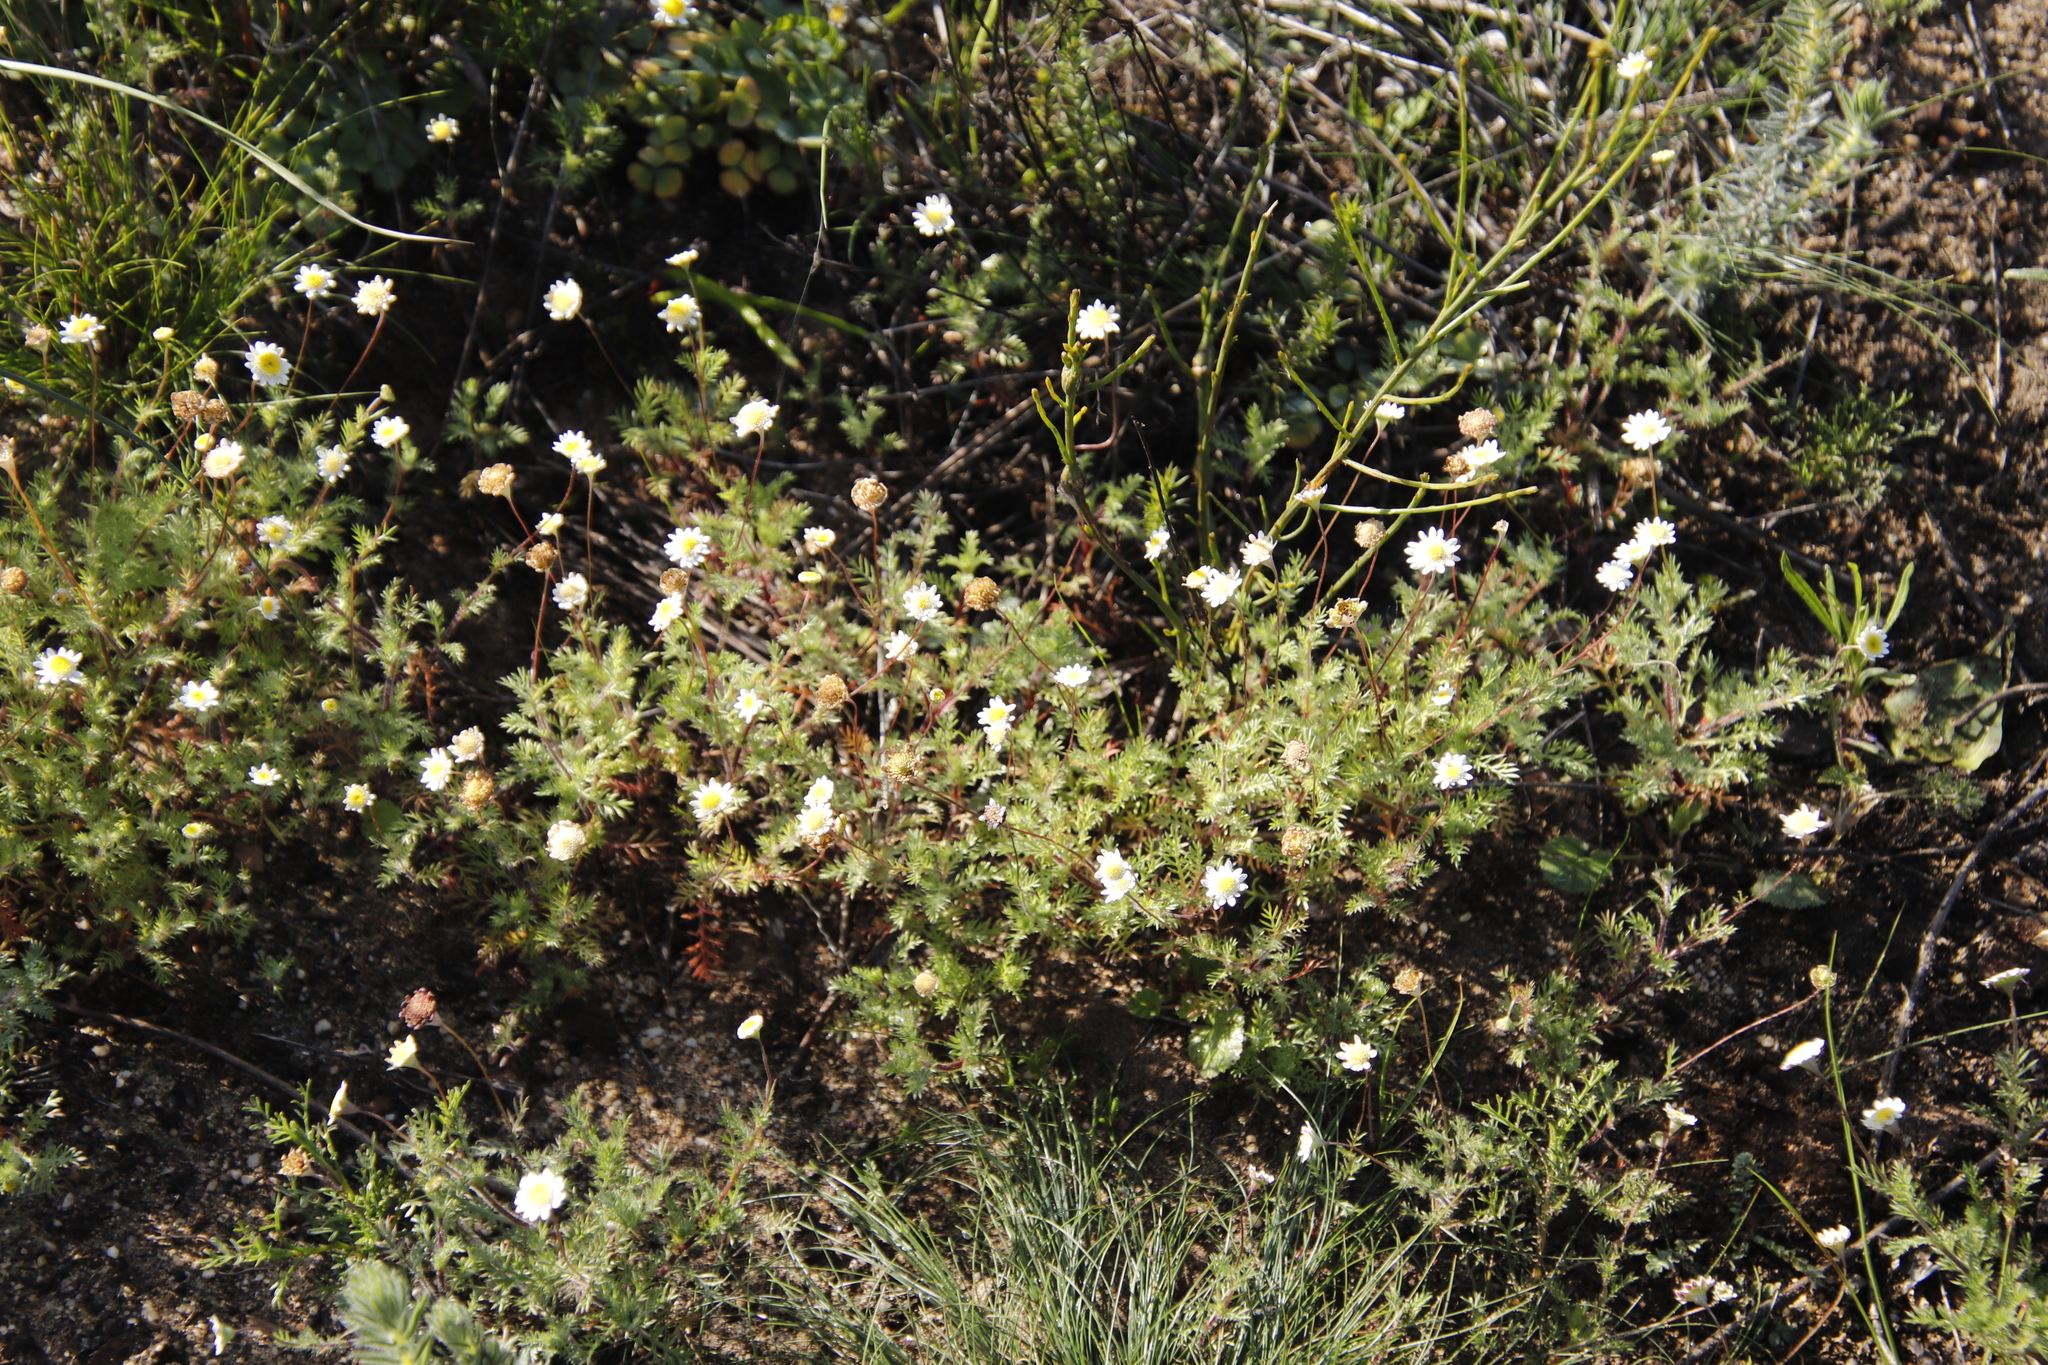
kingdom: Plantae
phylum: Tracheophyta
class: Magnoliopsida
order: Asterales
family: Asteraceae
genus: Cotula
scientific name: Cotula turbinata
